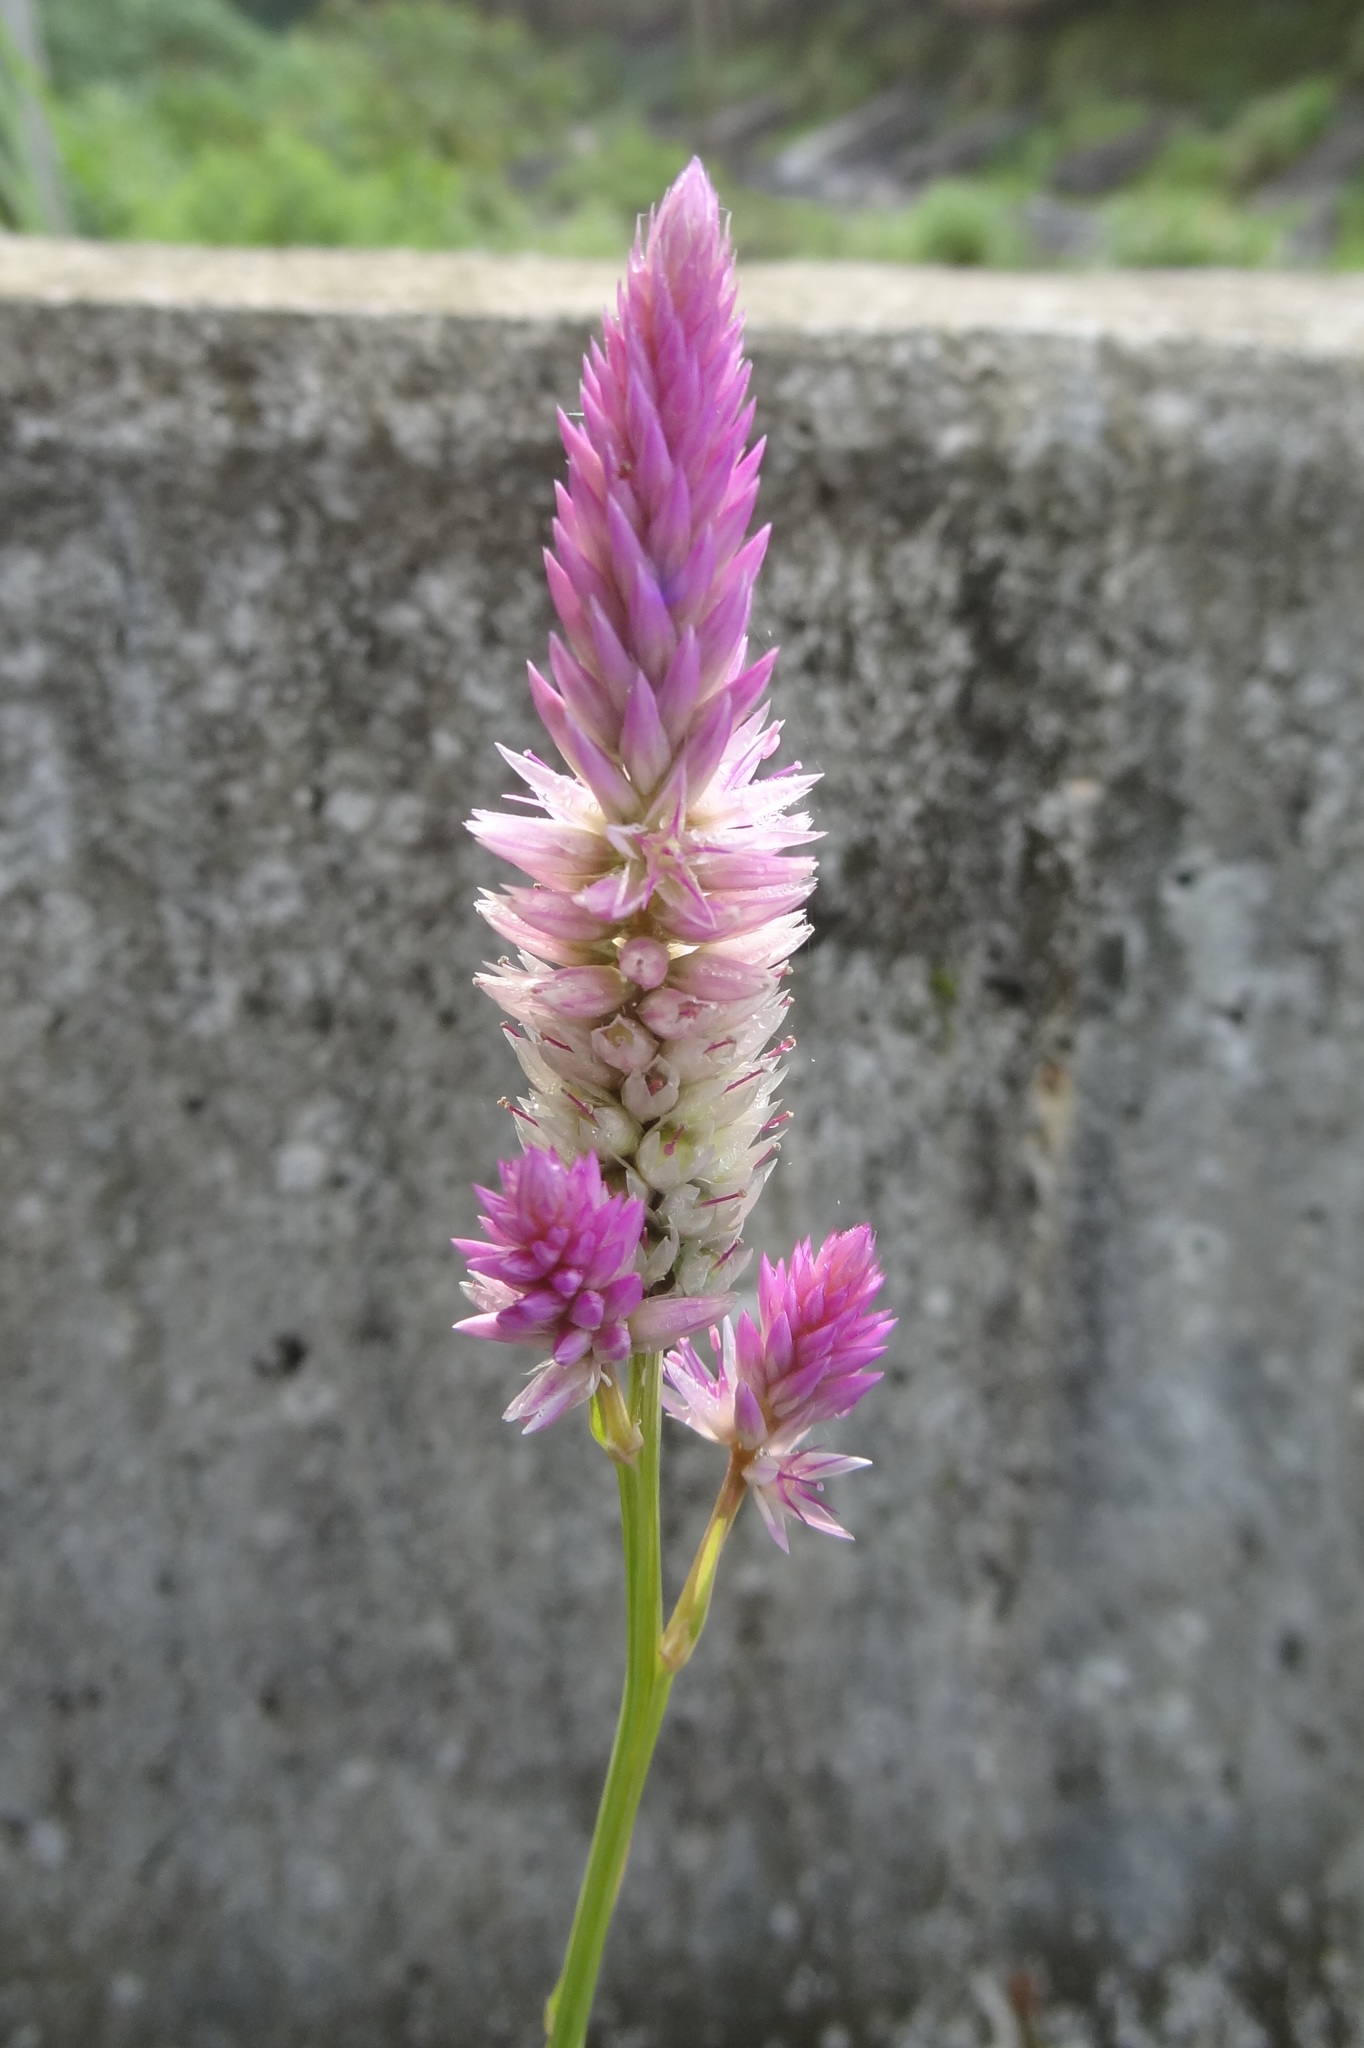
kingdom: Plantae
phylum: Tracheophyta
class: Magnoliopsida
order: Caryophyllales
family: Amaranthaceae
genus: Celosia
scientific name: Celosia argentea
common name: Feather cockscomb
